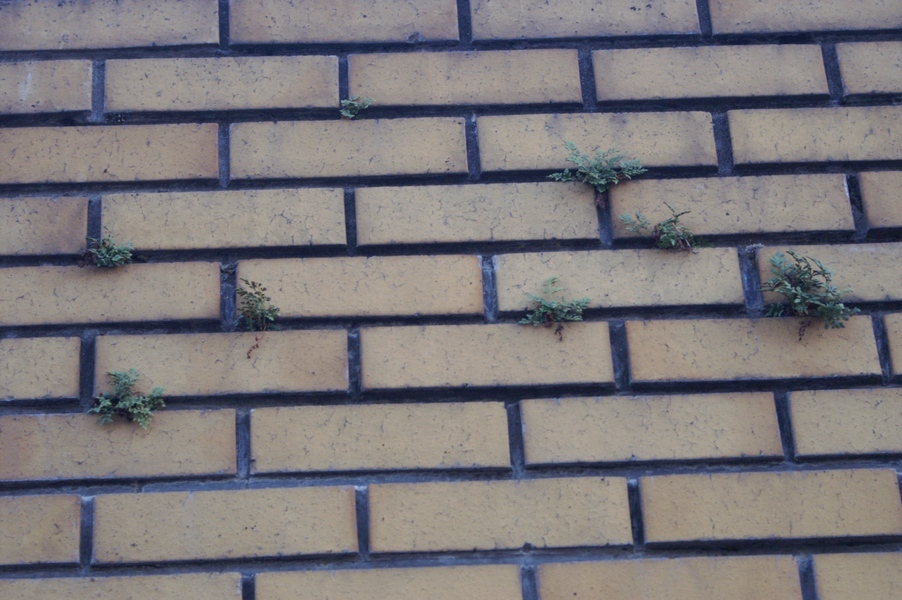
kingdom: Plantae
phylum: Tracheophyta
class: Polypodiopsida
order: Polypodiales
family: Aspleniaceae
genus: Asplenium
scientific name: Asplenium ruta-muraria
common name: Wall-rue
